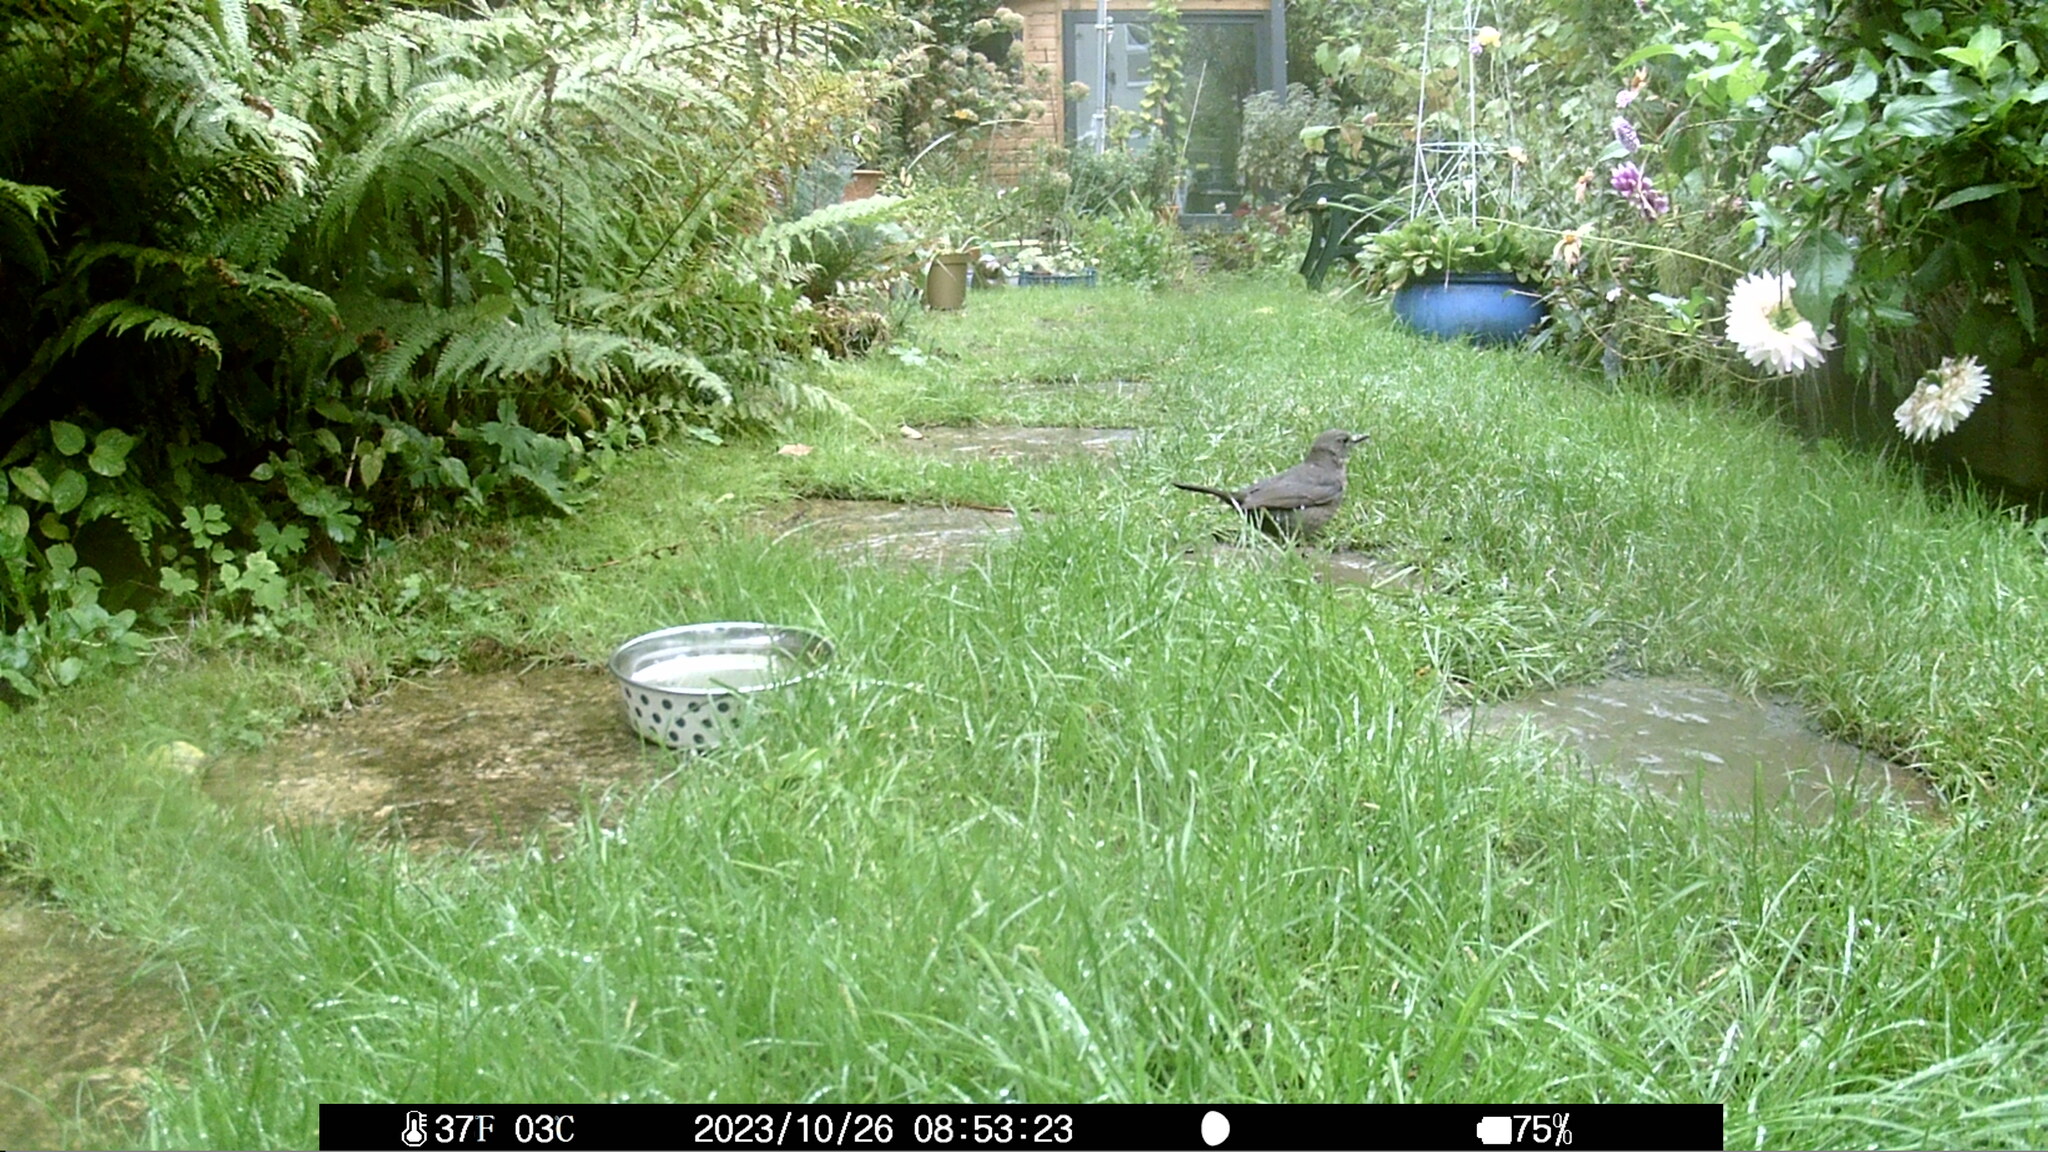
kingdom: Animalia
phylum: Chordata
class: Aves
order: Passeriformes
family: Turdidae
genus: Turdus
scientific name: Turdus merula
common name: Common blackbird
